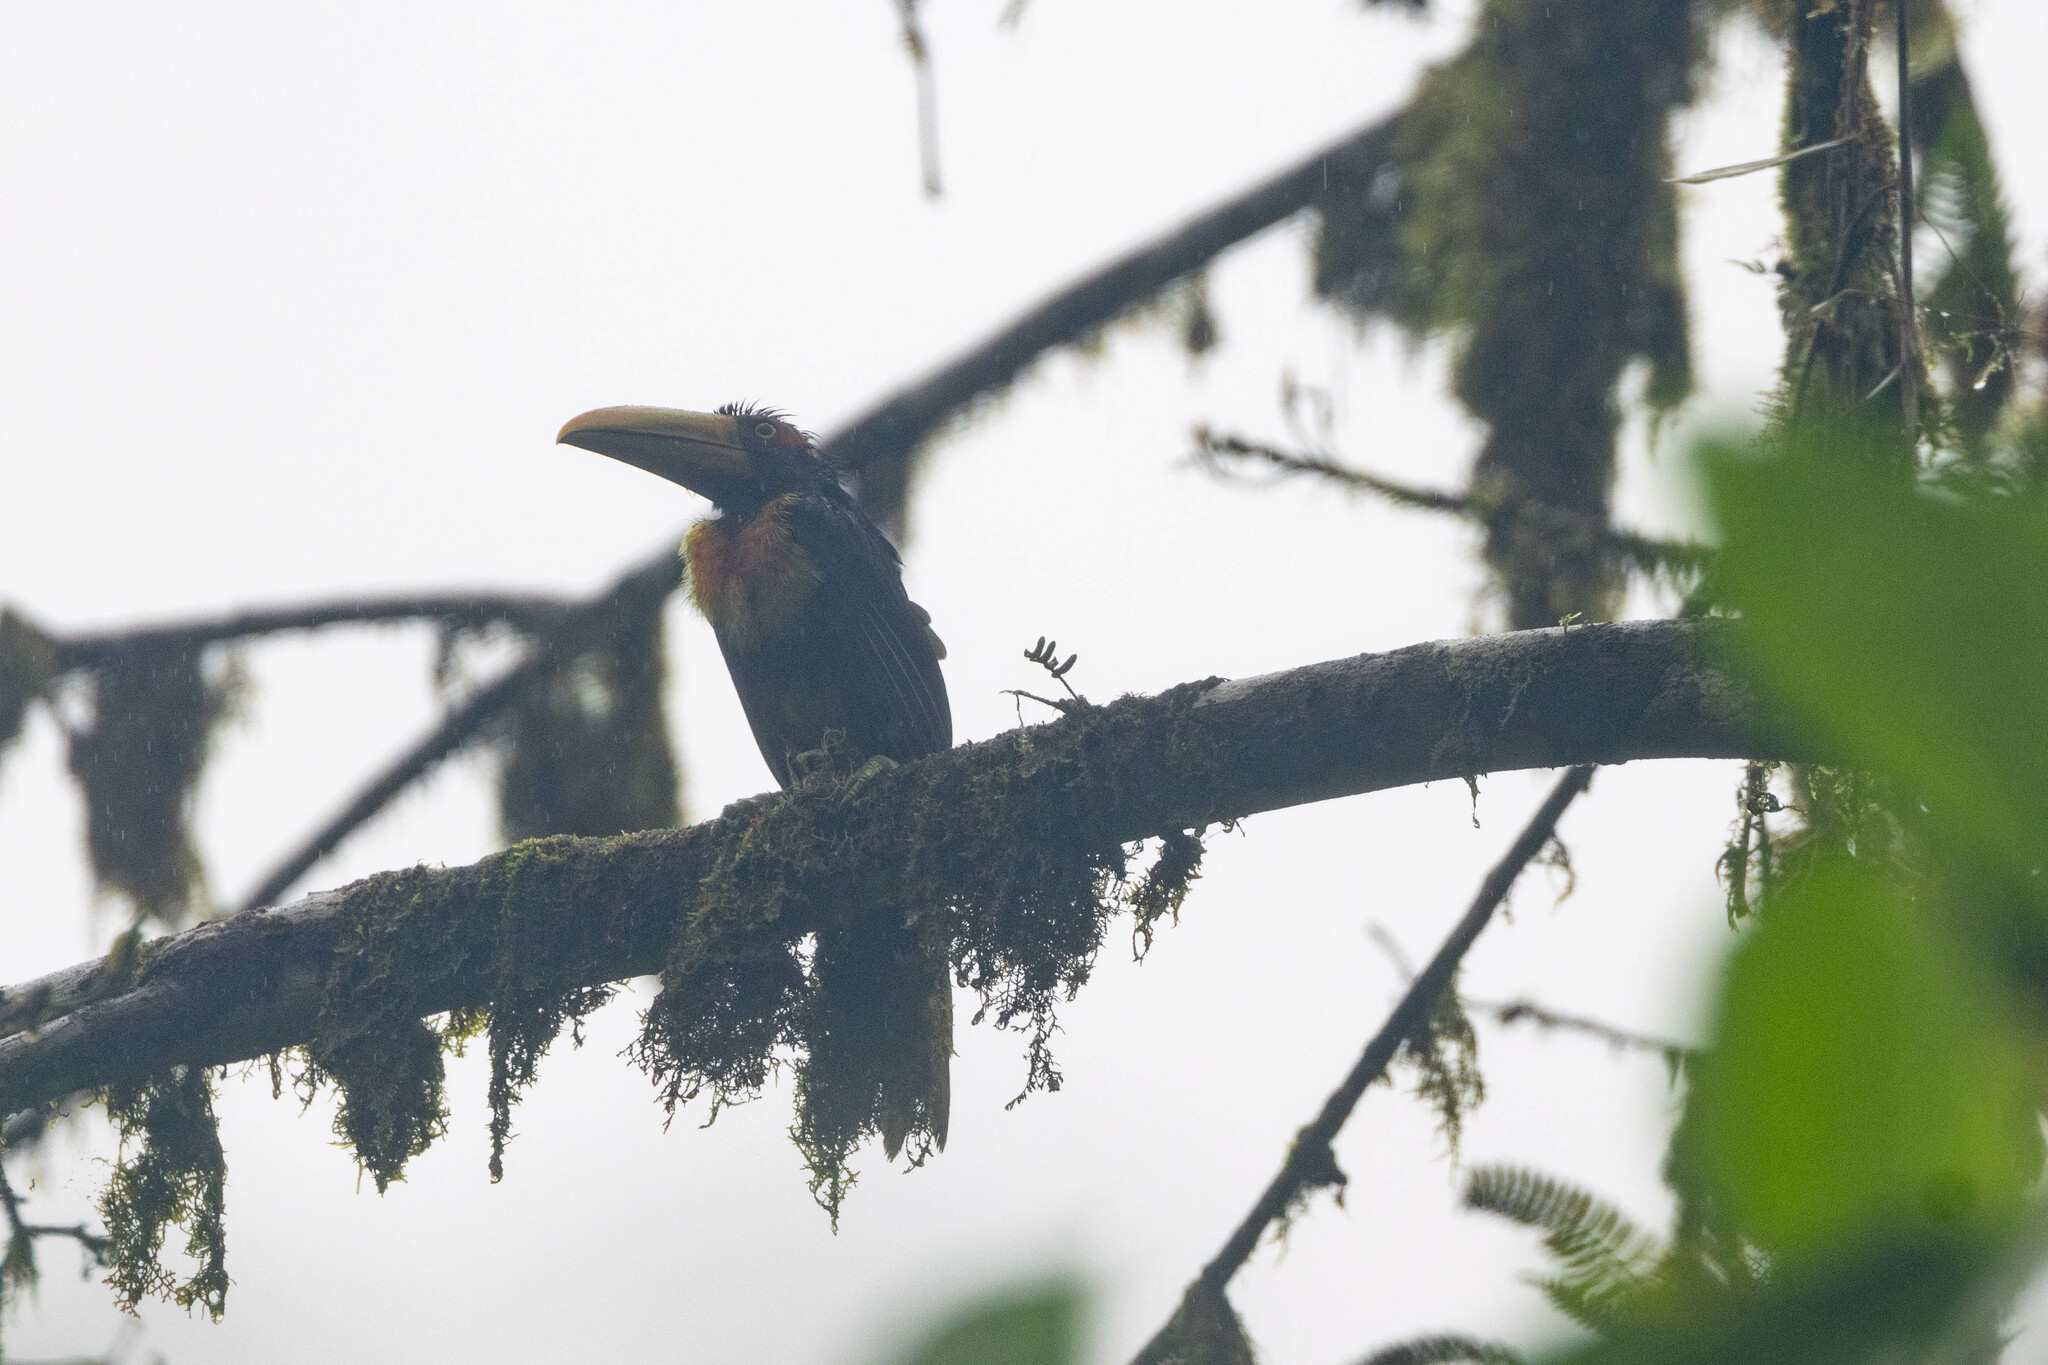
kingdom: Animalia
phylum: Chordata
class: Aves
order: Piciformes
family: Ramphastidae
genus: Pteroglossus
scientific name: Pteroglossus torquatus
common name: Collared aracari
